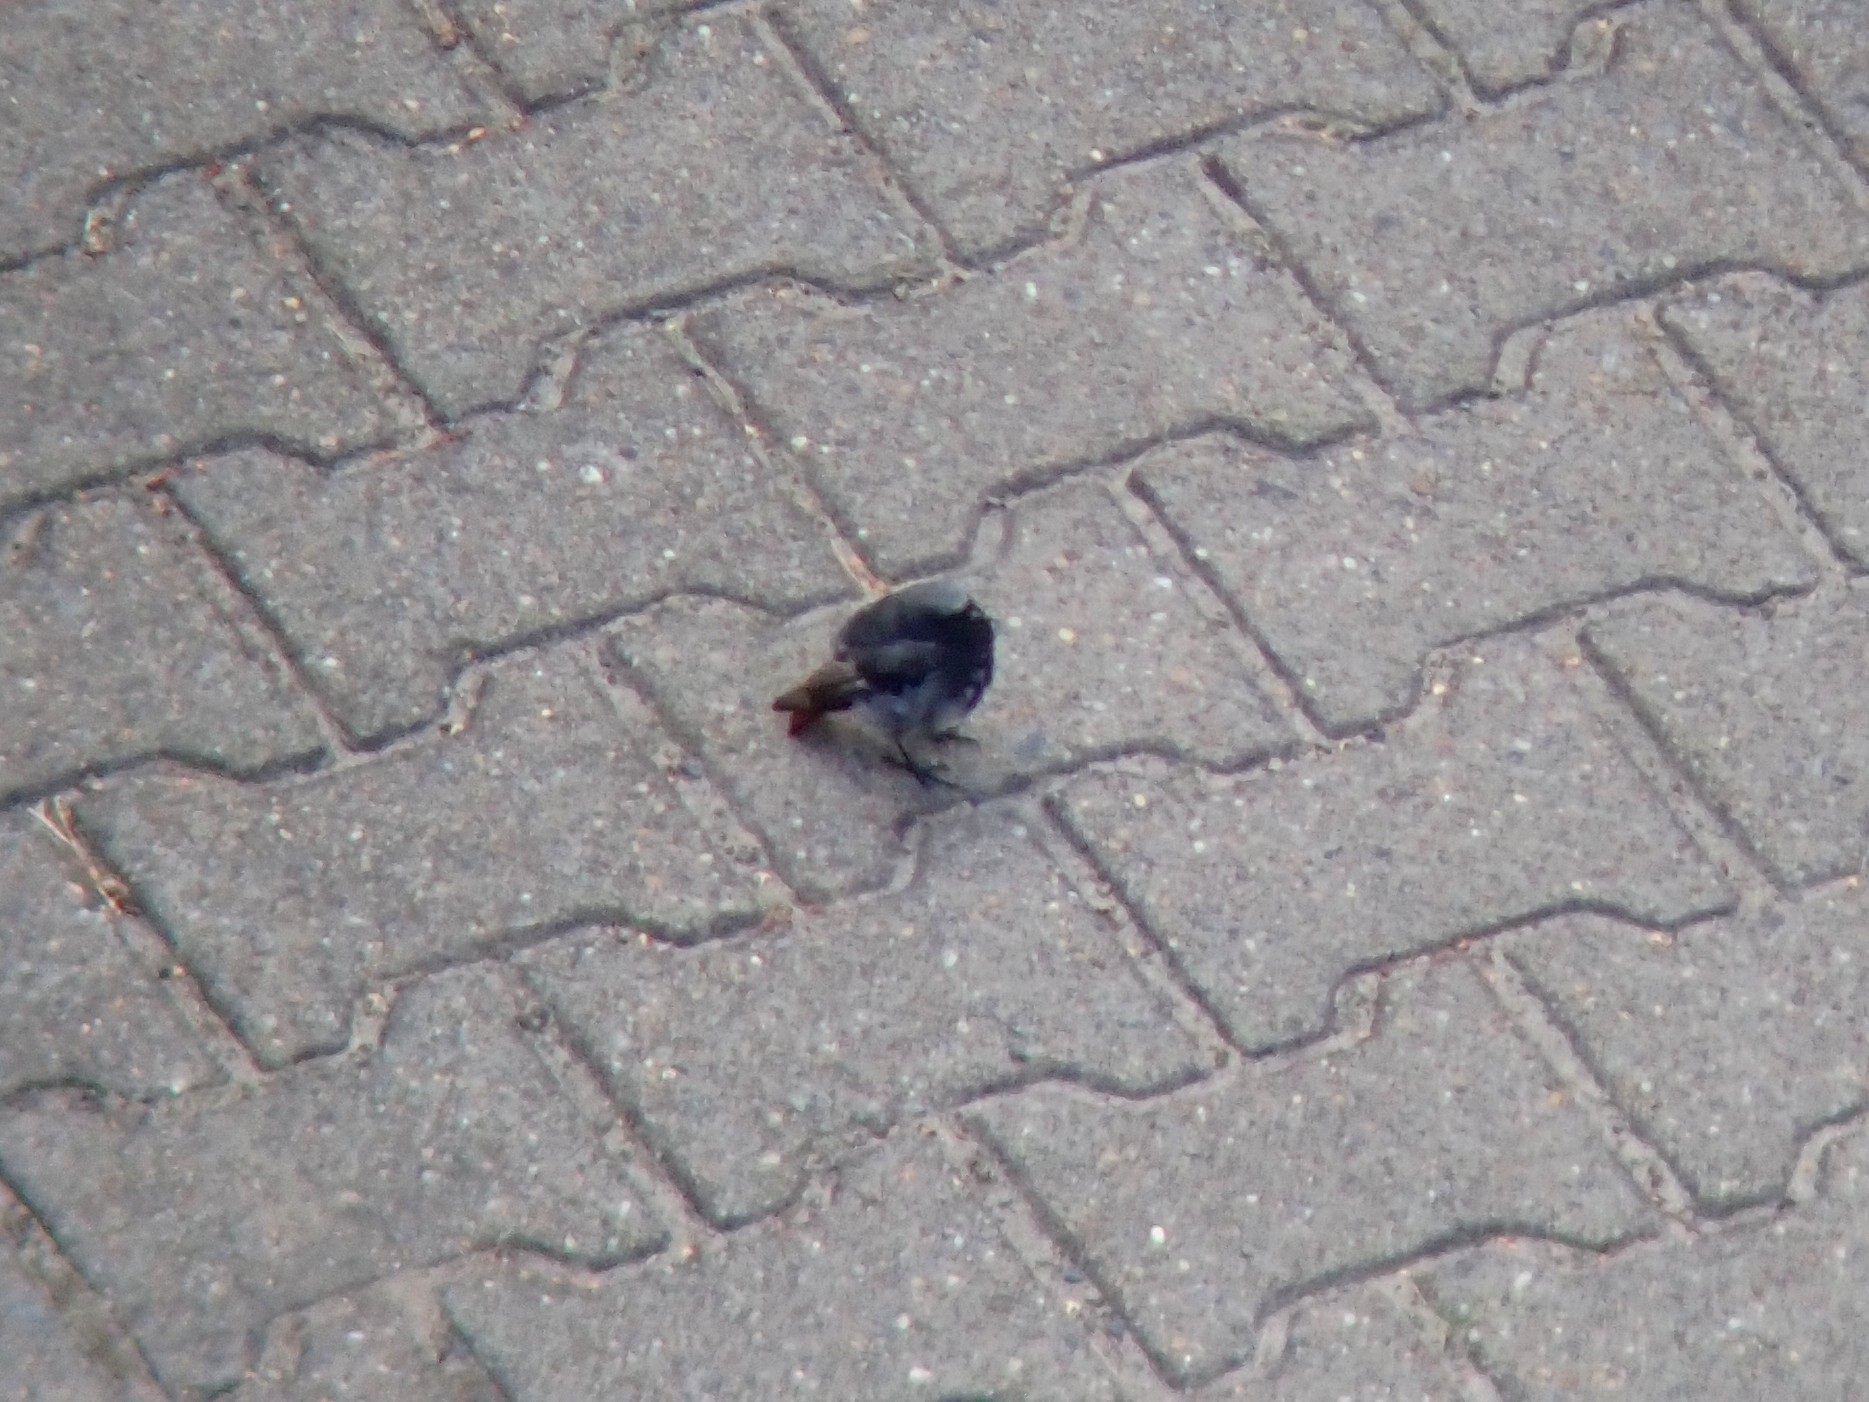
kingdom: Animalia
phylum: Chordata
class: Aves
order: Passeriformes
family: Muscicapidae
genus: Phoenicurus
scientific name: Phoenicurus ochruros
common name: Black redstart
